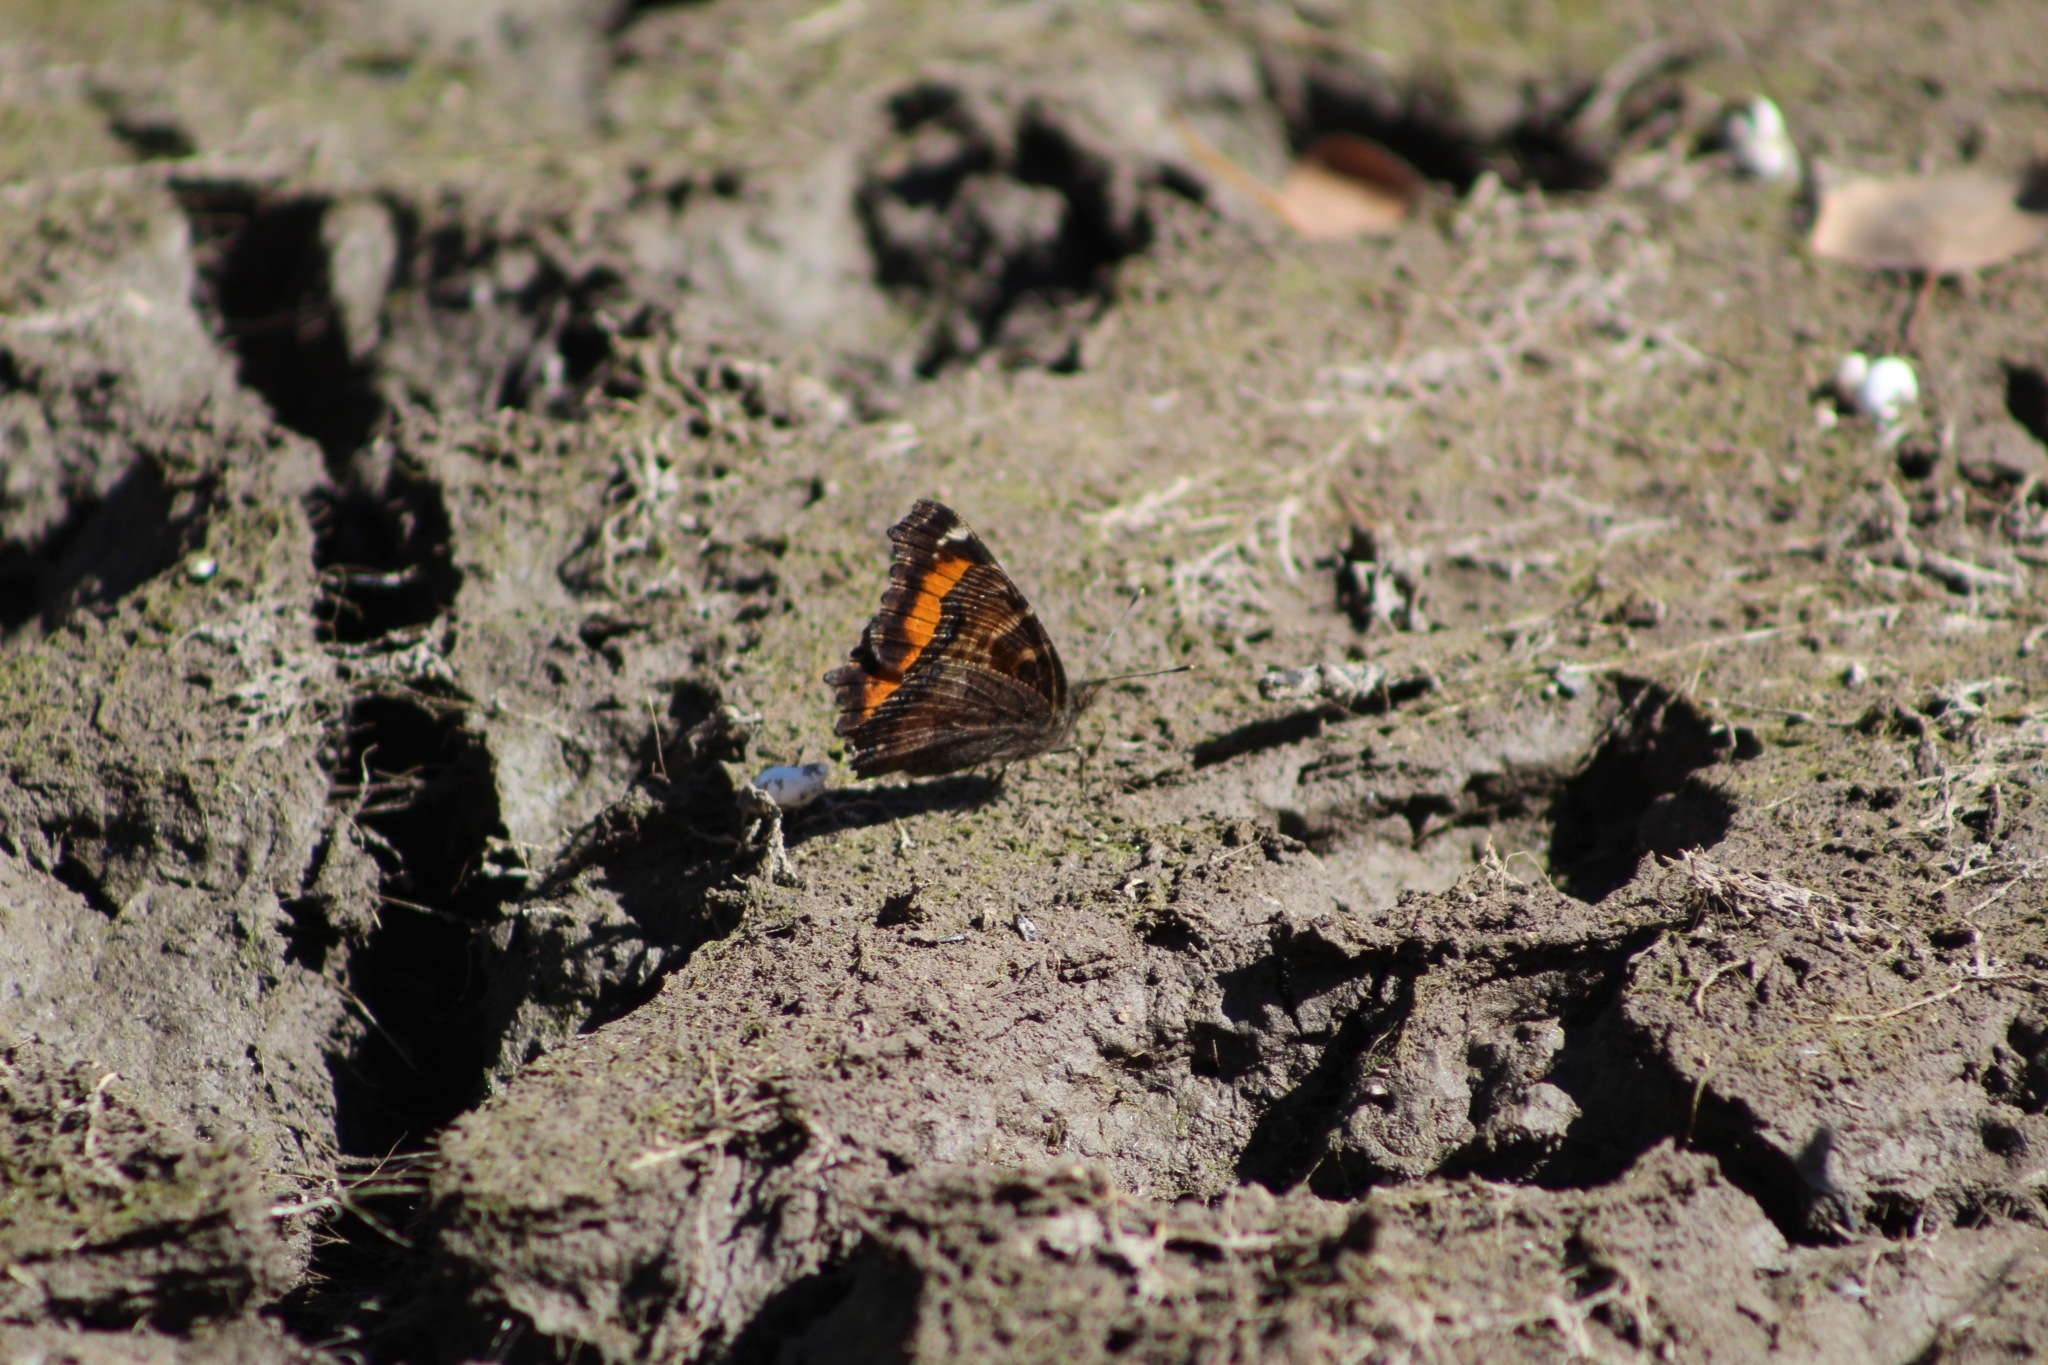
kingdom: Animalia
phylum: Arthropoda
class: Insecta
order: Lepidoptera
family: Nymphalidae
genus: Nymphalis
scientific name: Nymphalis californica
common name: California tortoiseshell
